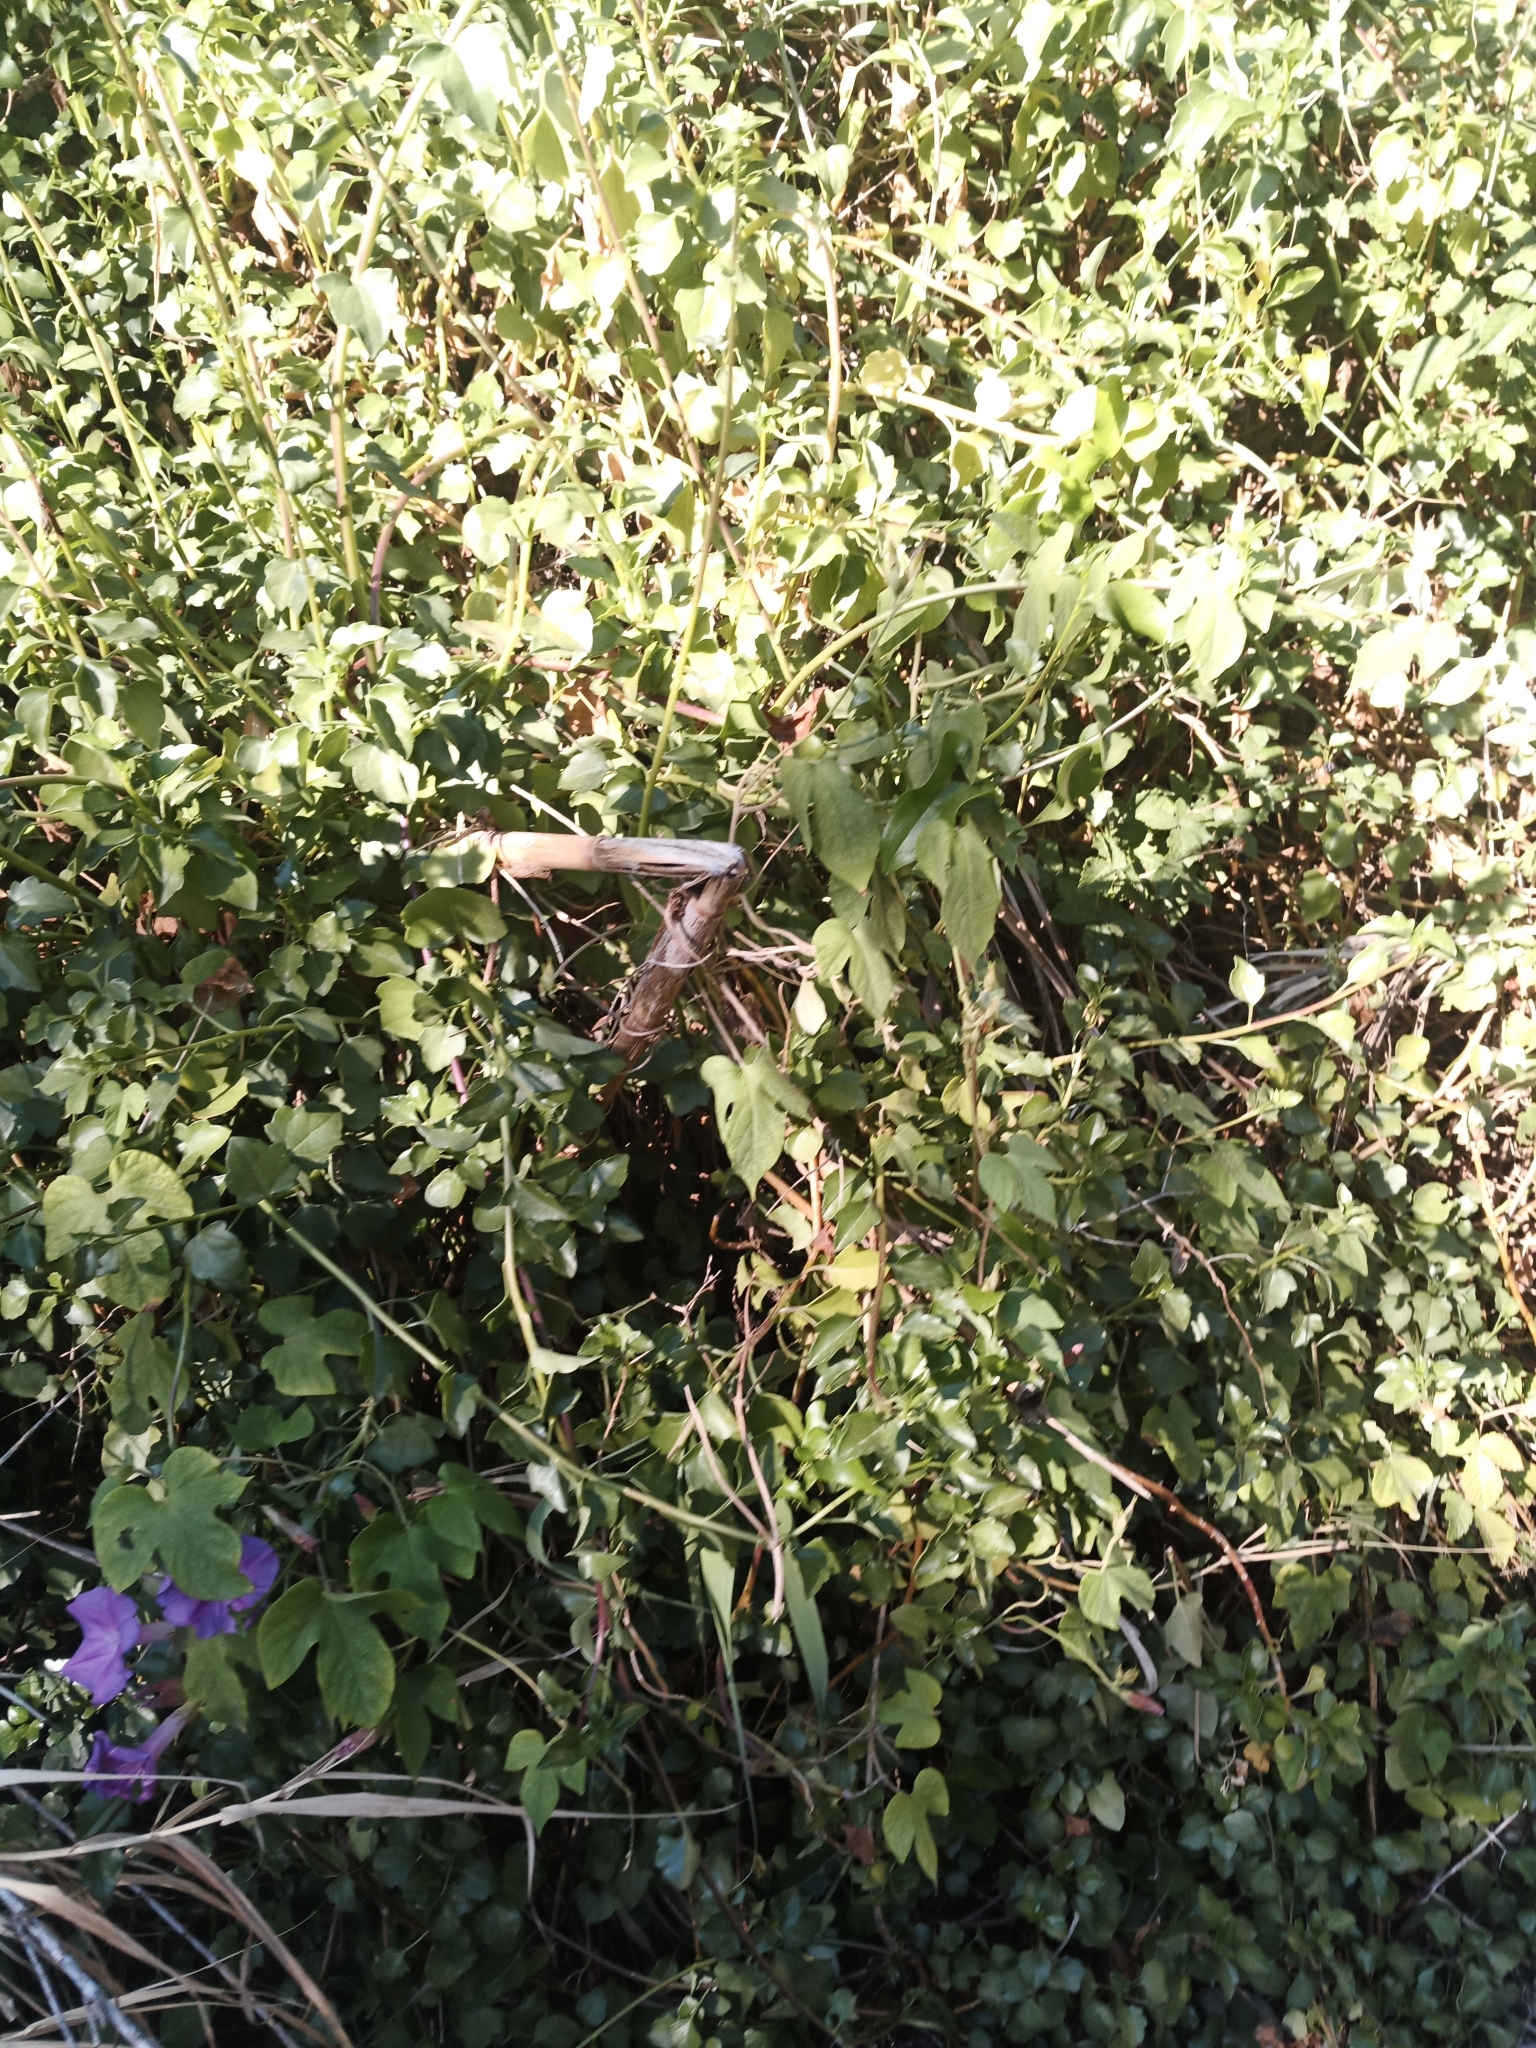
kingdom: Plantae
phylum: Tracheophyta
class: Magnoliopsida
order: Solanales
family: Convolvulaceae
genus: Ipomoea
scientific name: Ipomoea indica
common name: Blue dawnflower
